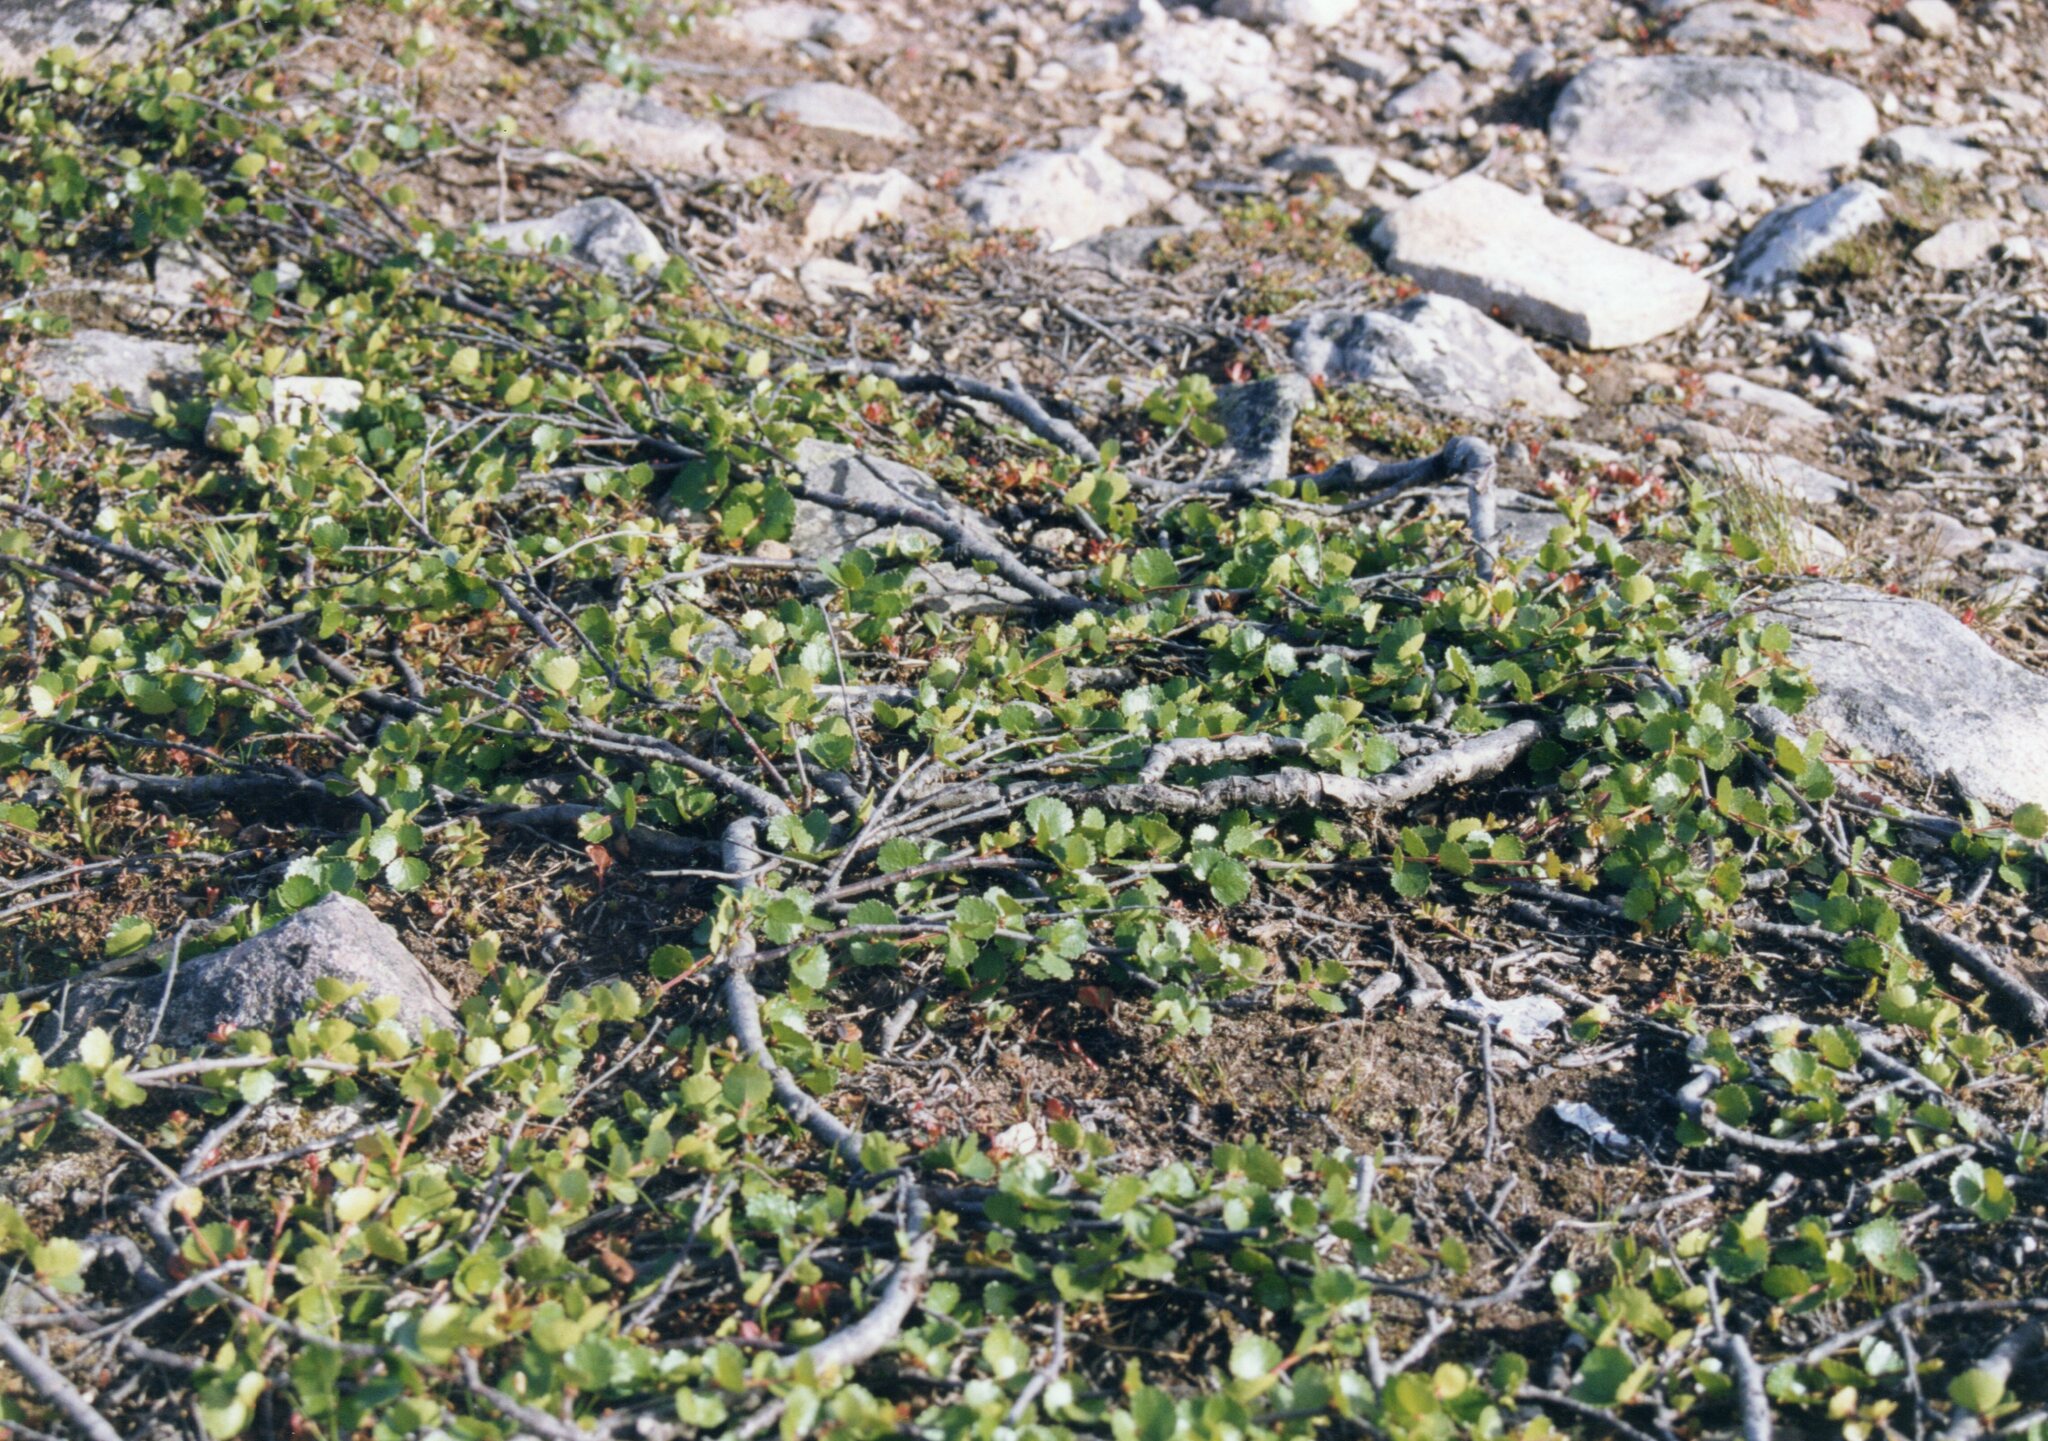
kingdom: Plantae
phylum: Tracheophyta
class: Magnoliopsida
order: Fagales
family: Betulaceae
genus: Betula
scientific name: Betula nana
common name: Arctic dwarf birch
